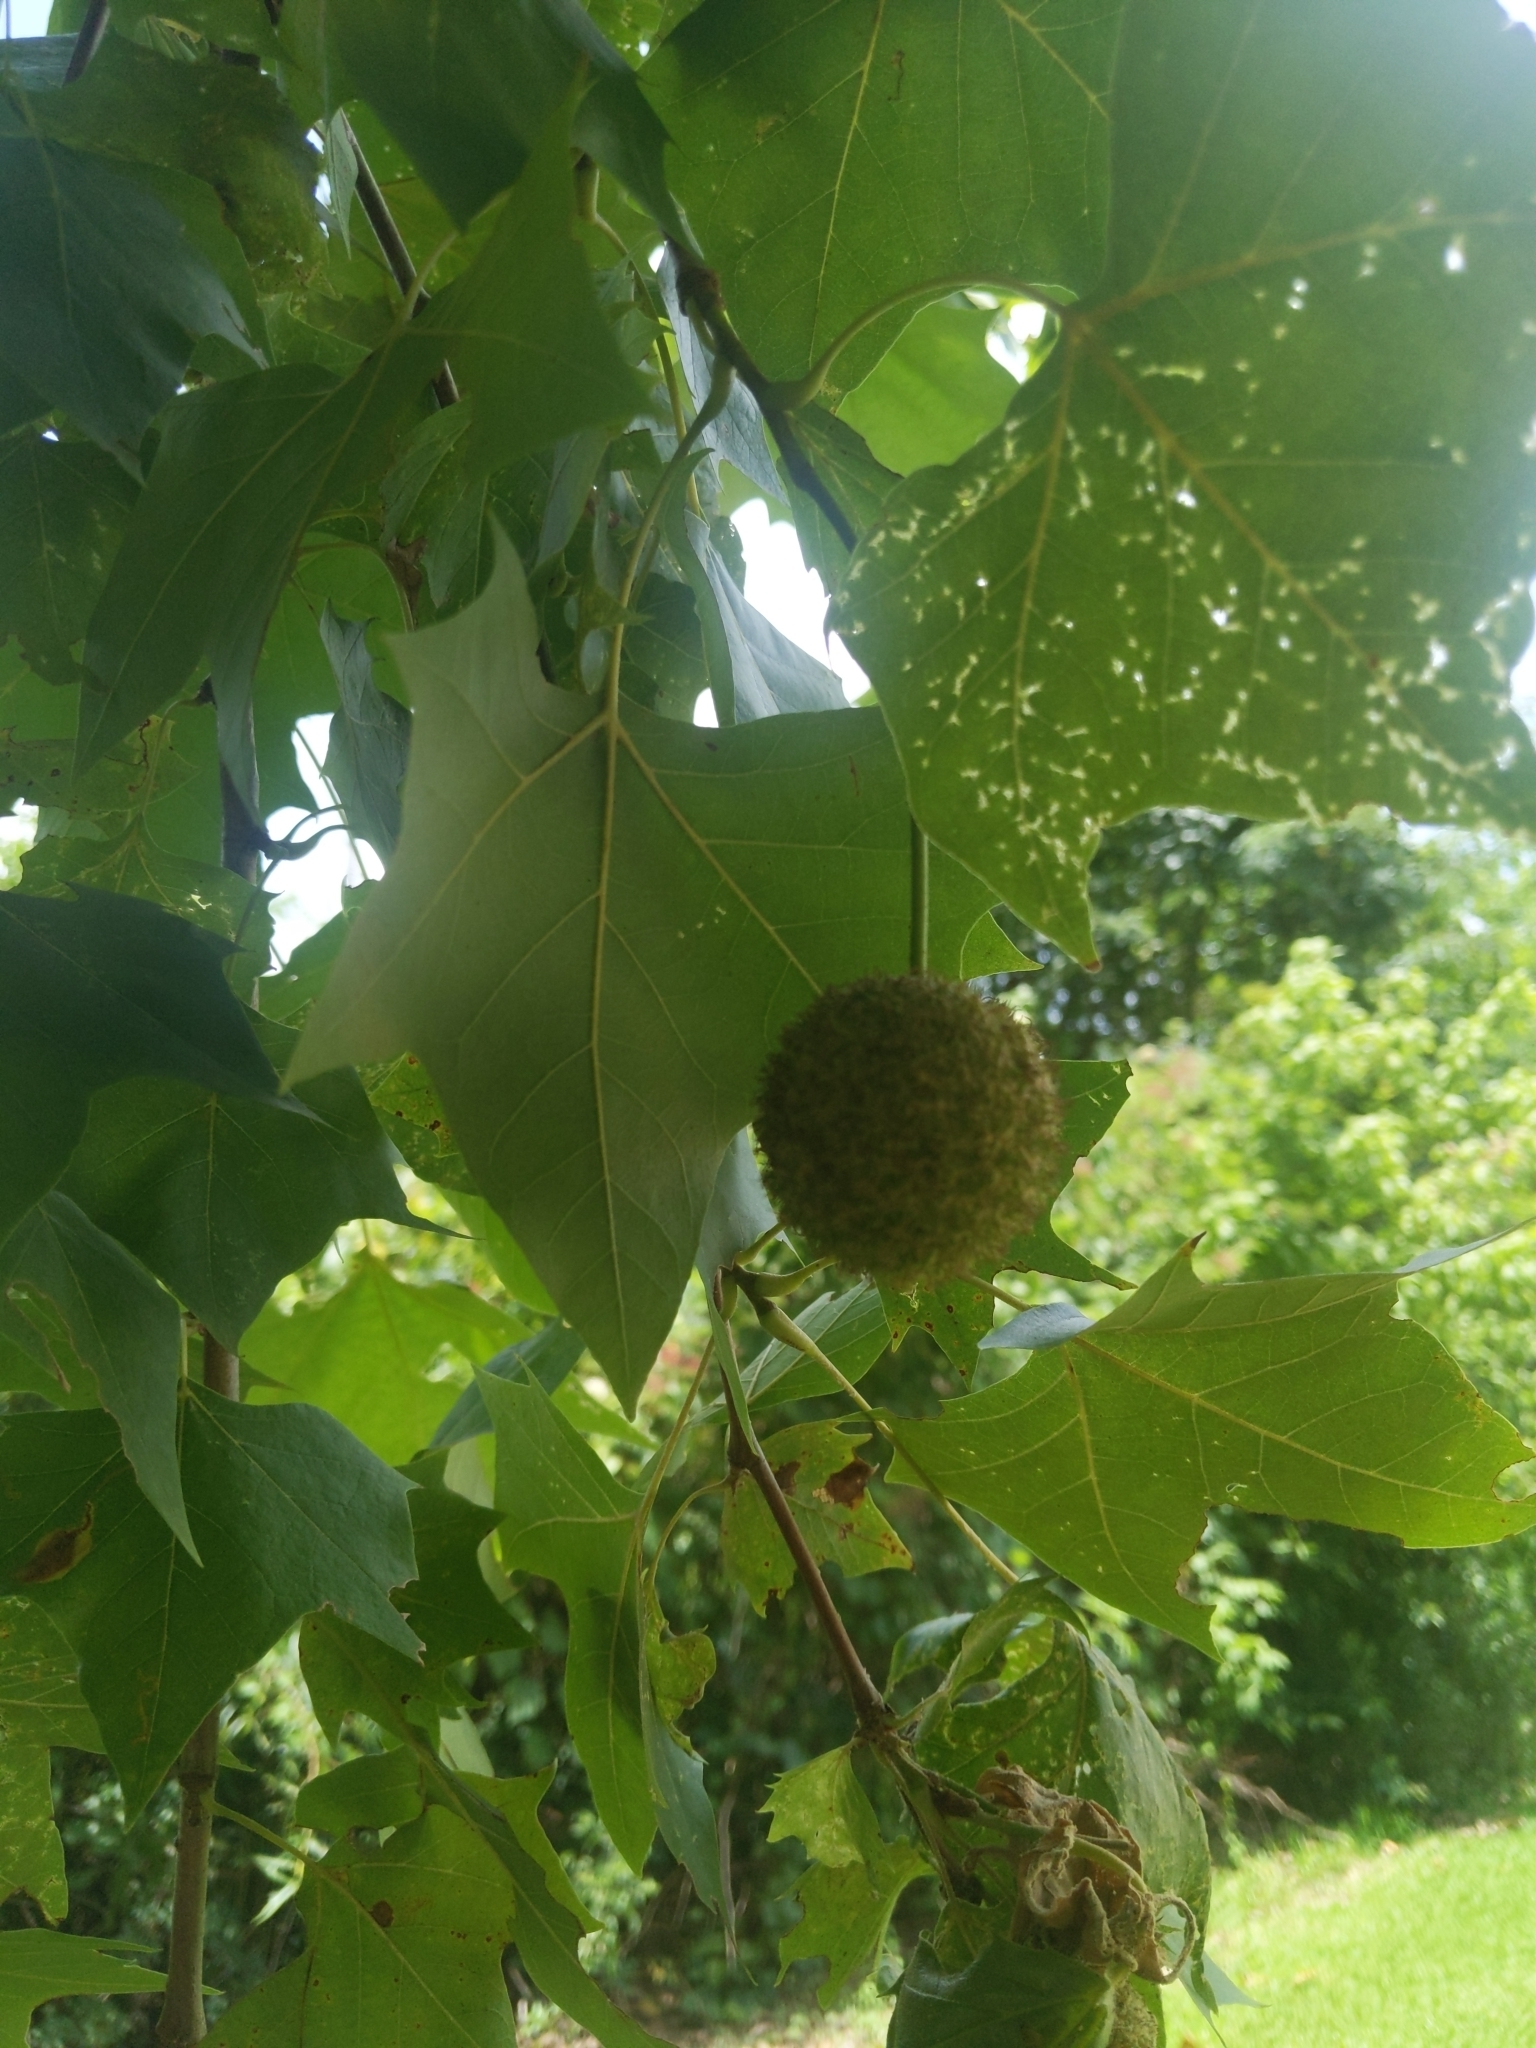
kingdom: Plantae
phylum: Tracheophyta
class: Magnoliopsida
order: Proteales
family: Platanaceae
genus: Platanus
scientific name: Platanus occidentalis
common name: American sycamore
